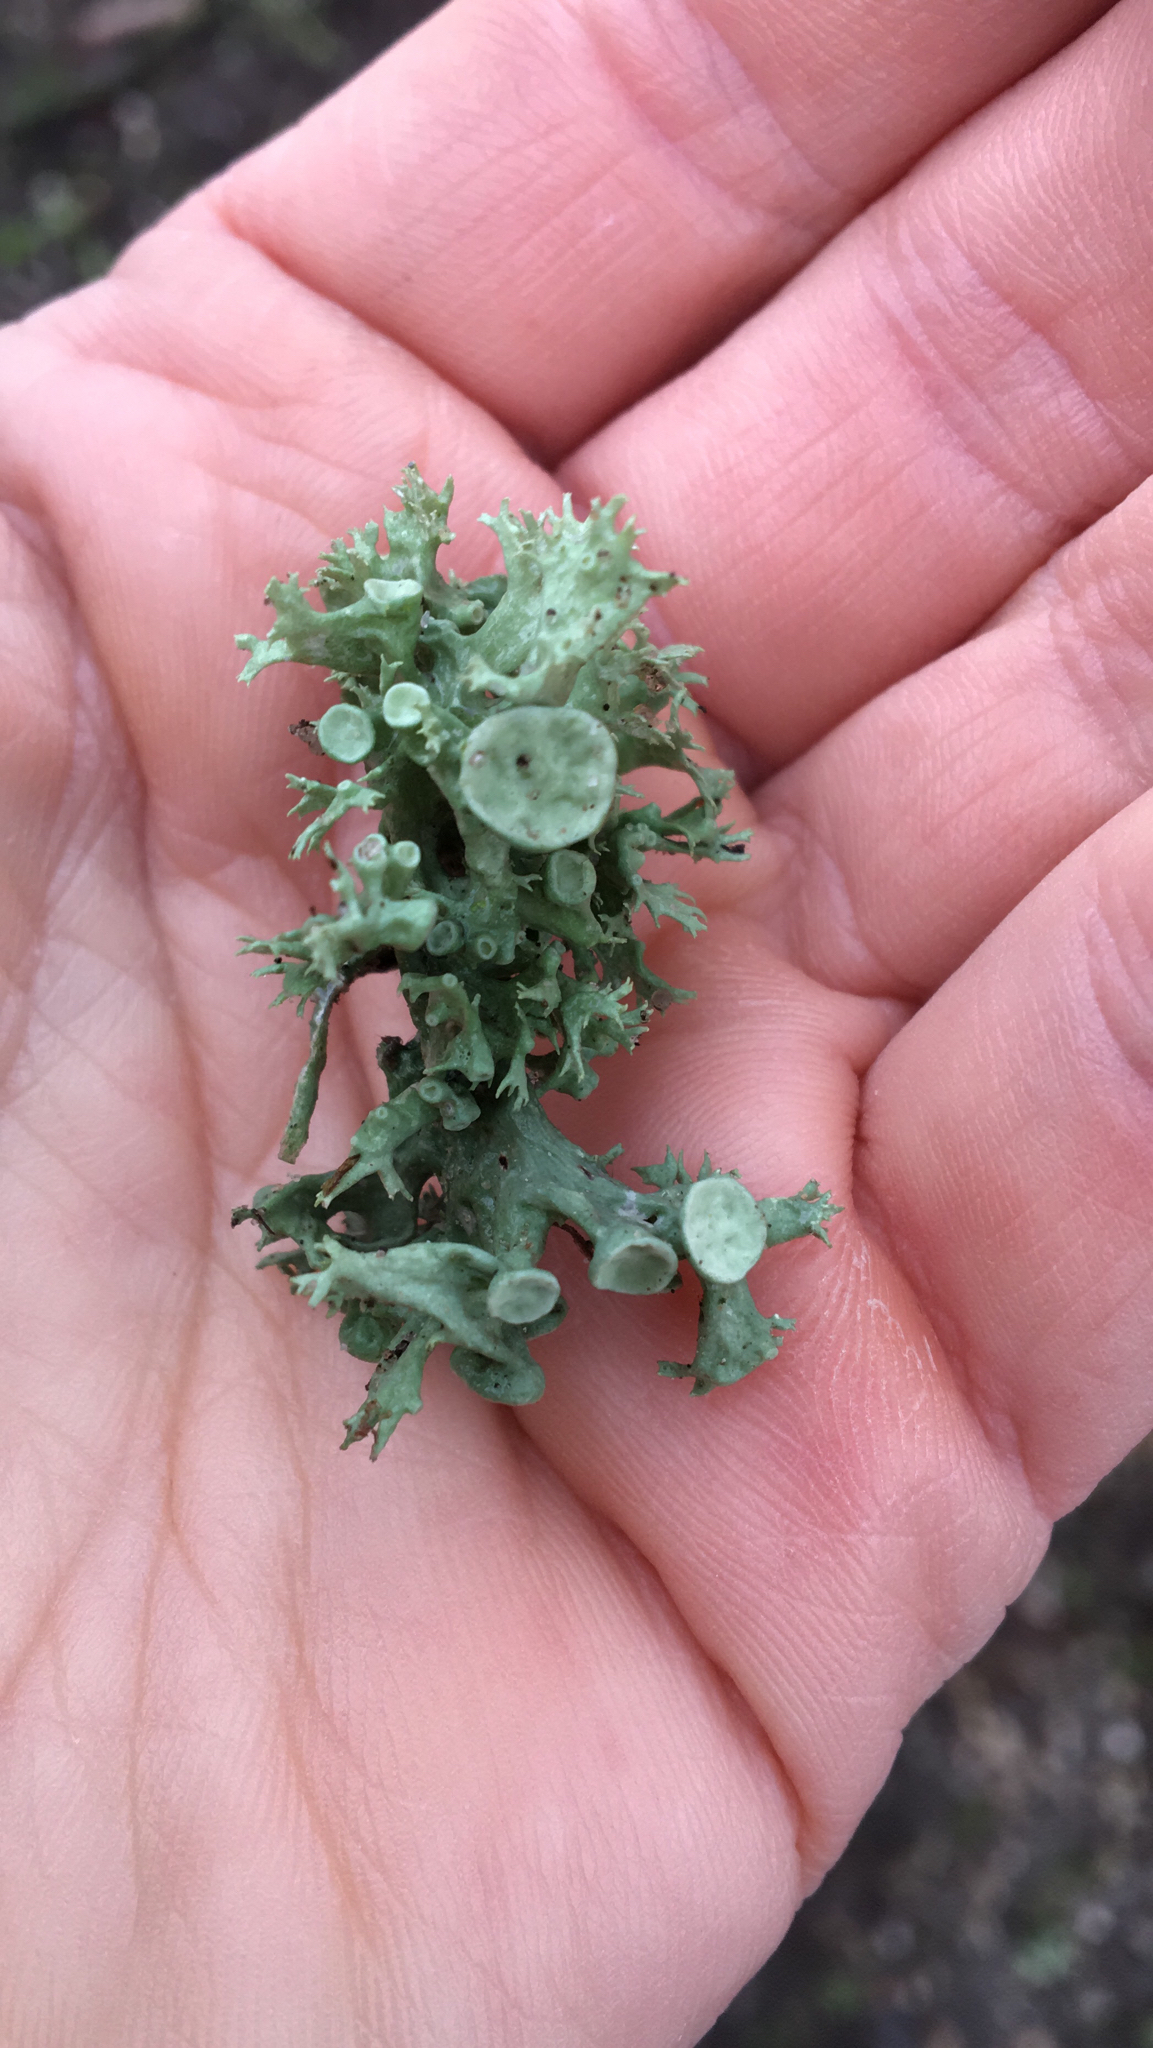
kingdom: Fungi
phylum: Ascomycota
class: Lecanoromycetes
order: Lecanorales
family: Ramalinaceae
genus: Ramalina
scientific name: Ramalina fastigiata
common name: Dotted ribbon lichen
